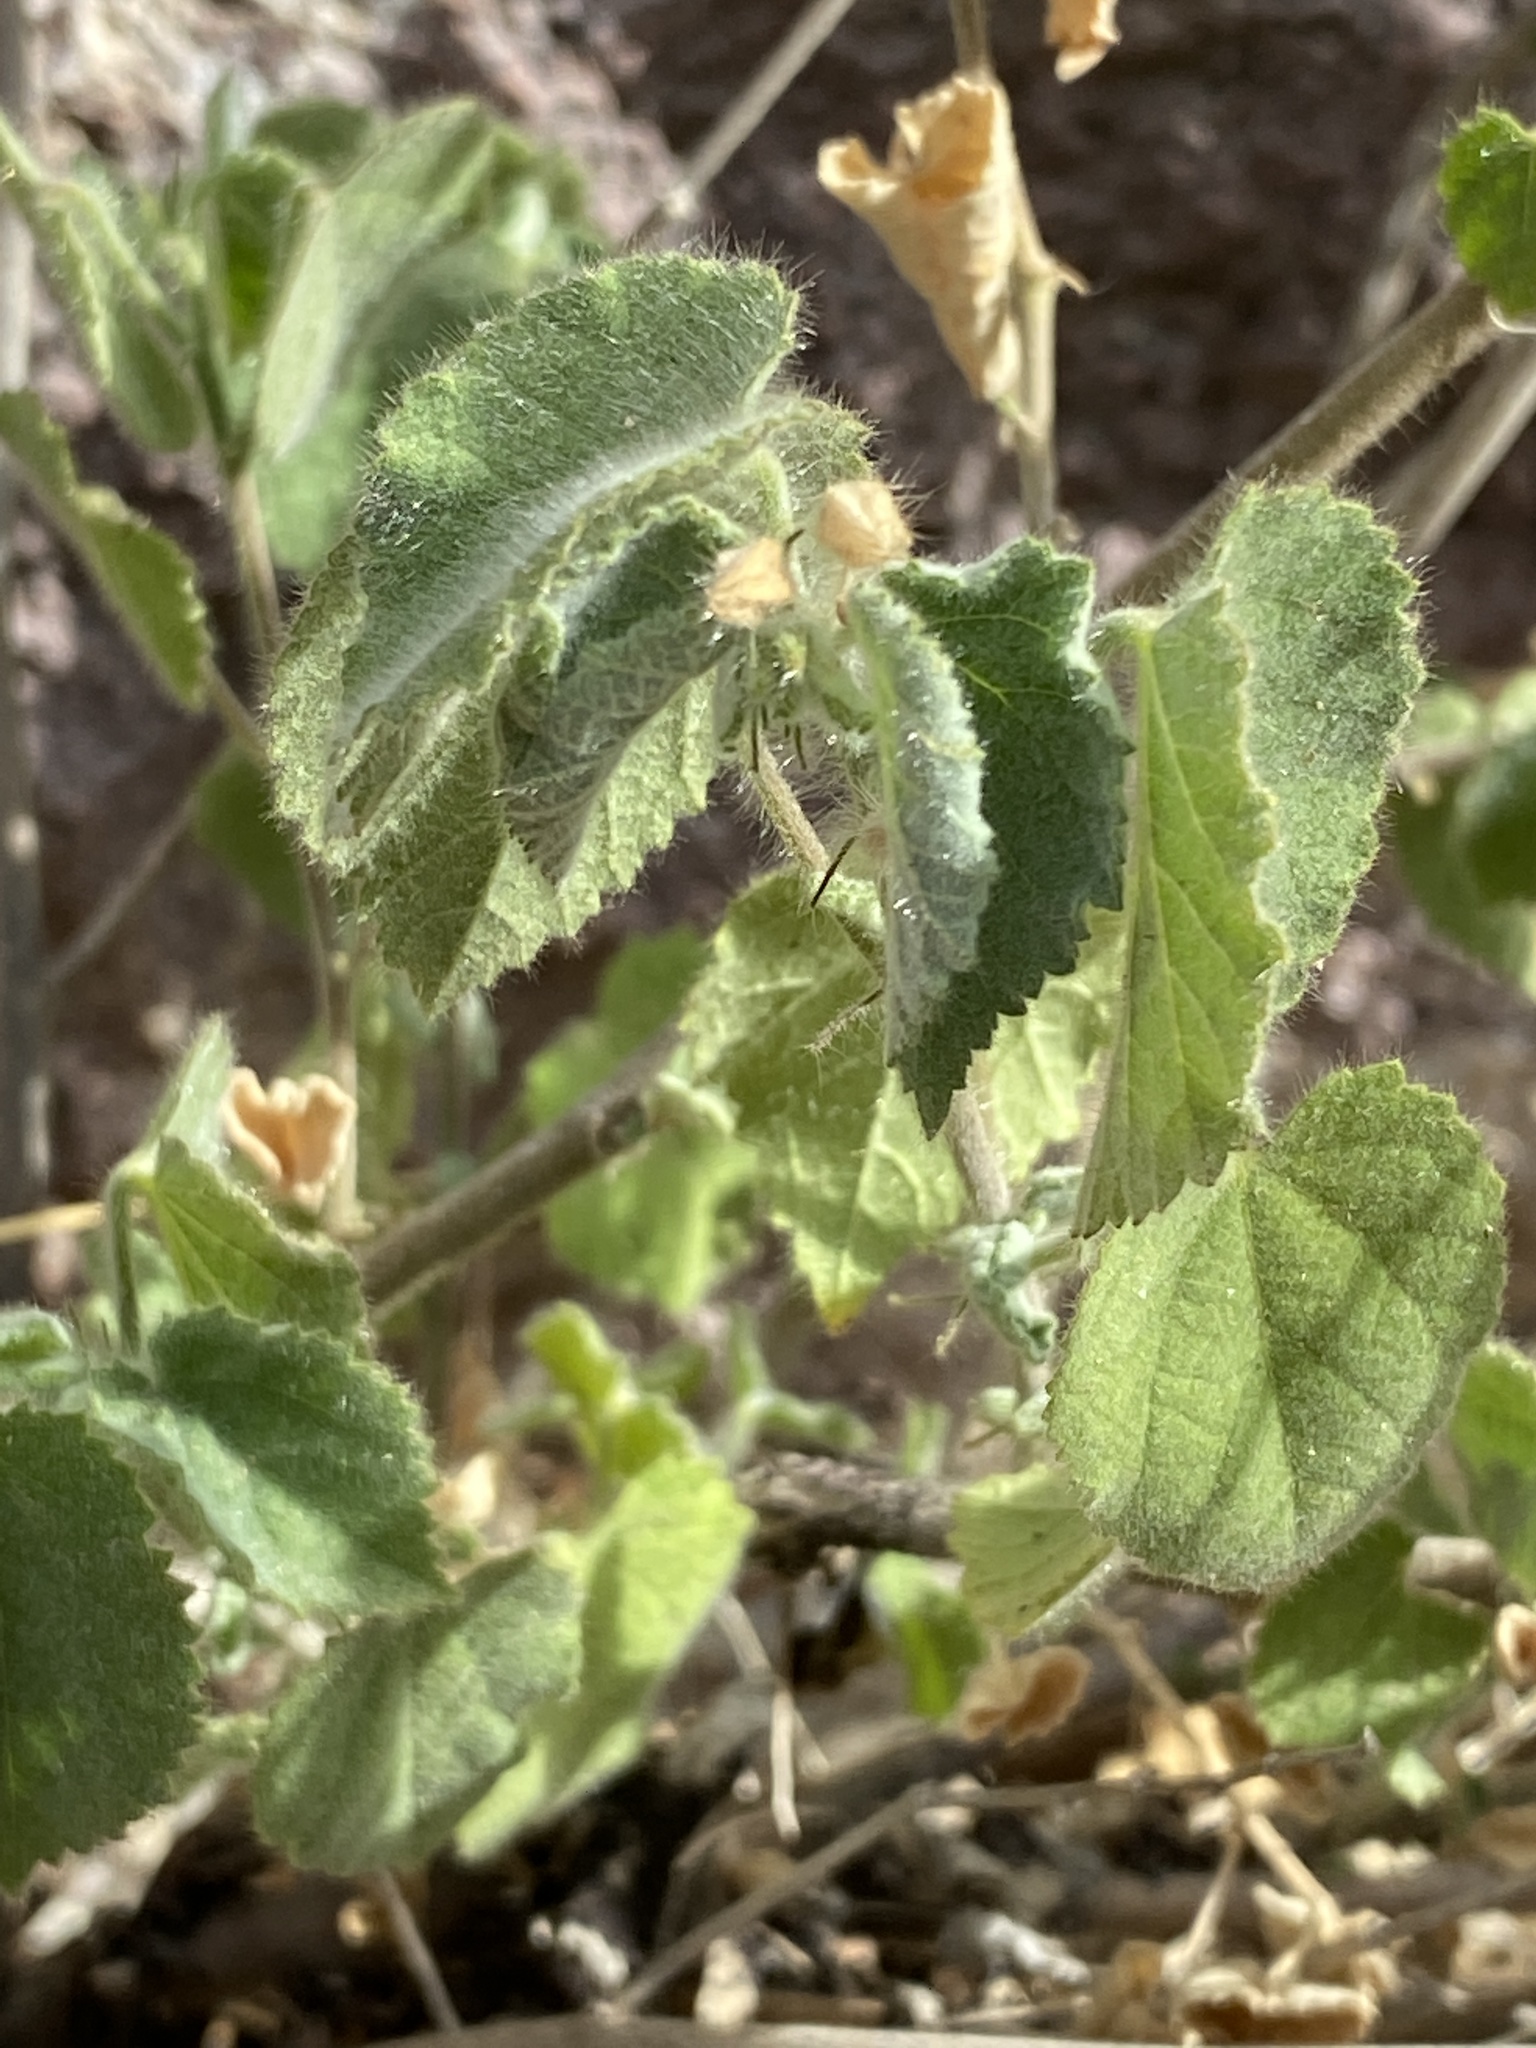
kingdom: Plantae
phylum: Tracheophyta
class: Magnoliopsida
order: Malvales
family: Malvaceae
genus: Herissantia
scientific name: Herissantia crispa
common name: Bladdermallow
